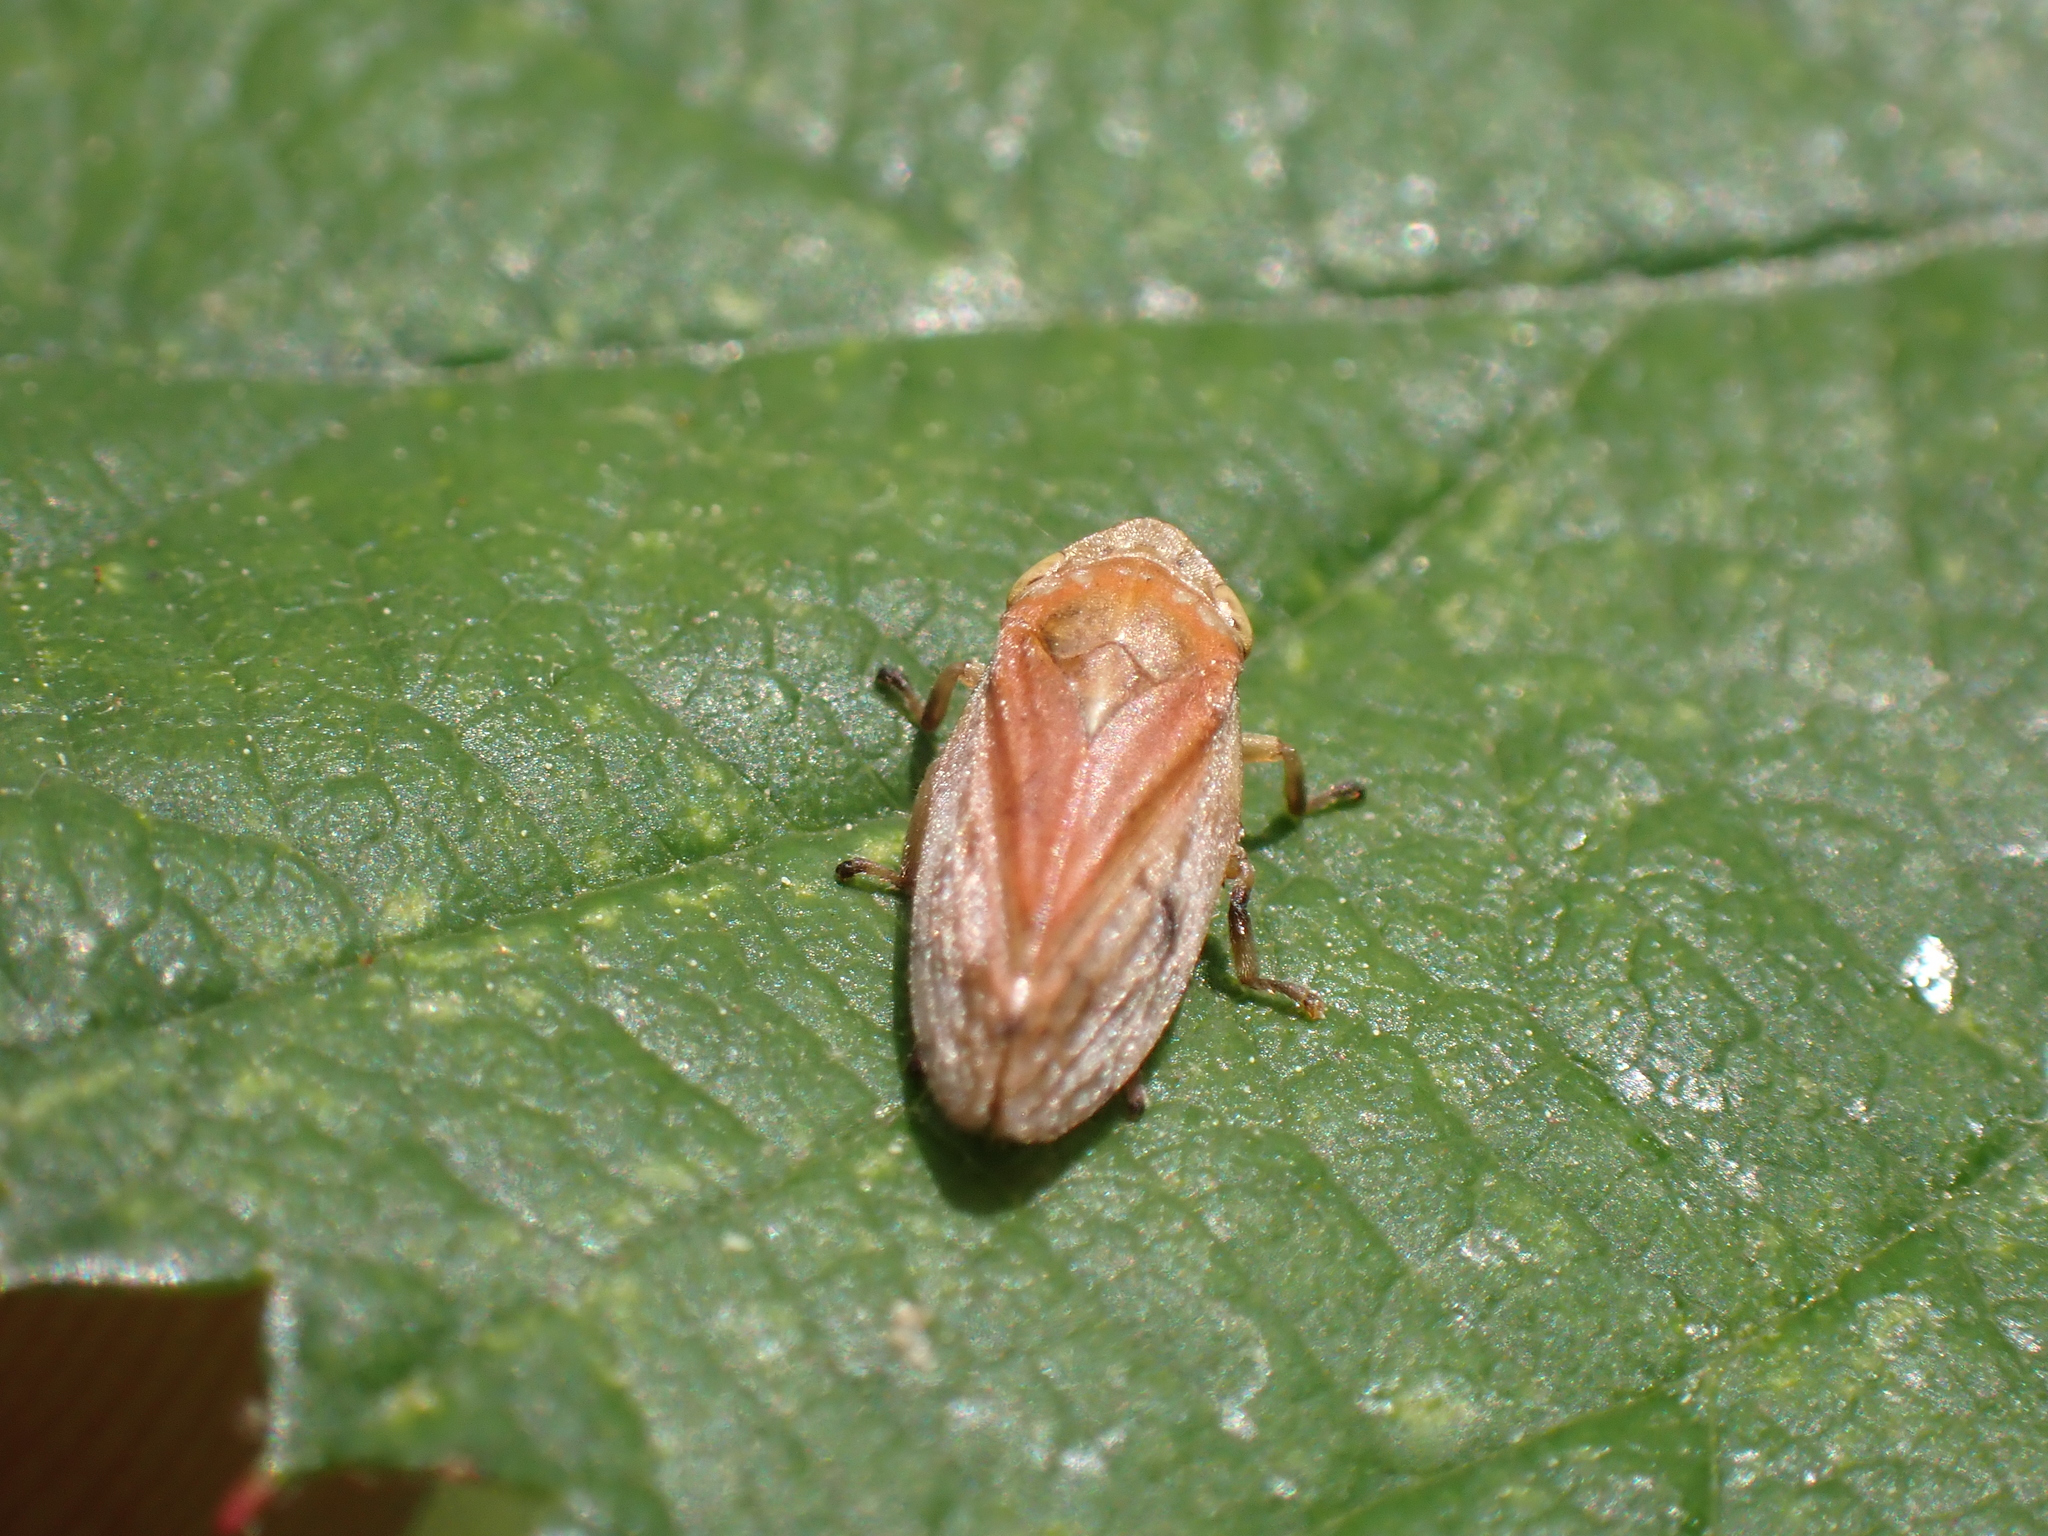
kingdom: Animalia
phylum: Arthropoda
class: Insecta
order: Hemiptera
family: Aphrophoridae
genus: Philaenus
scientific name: Philaenus spumarius
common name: Meadow spittlebug
